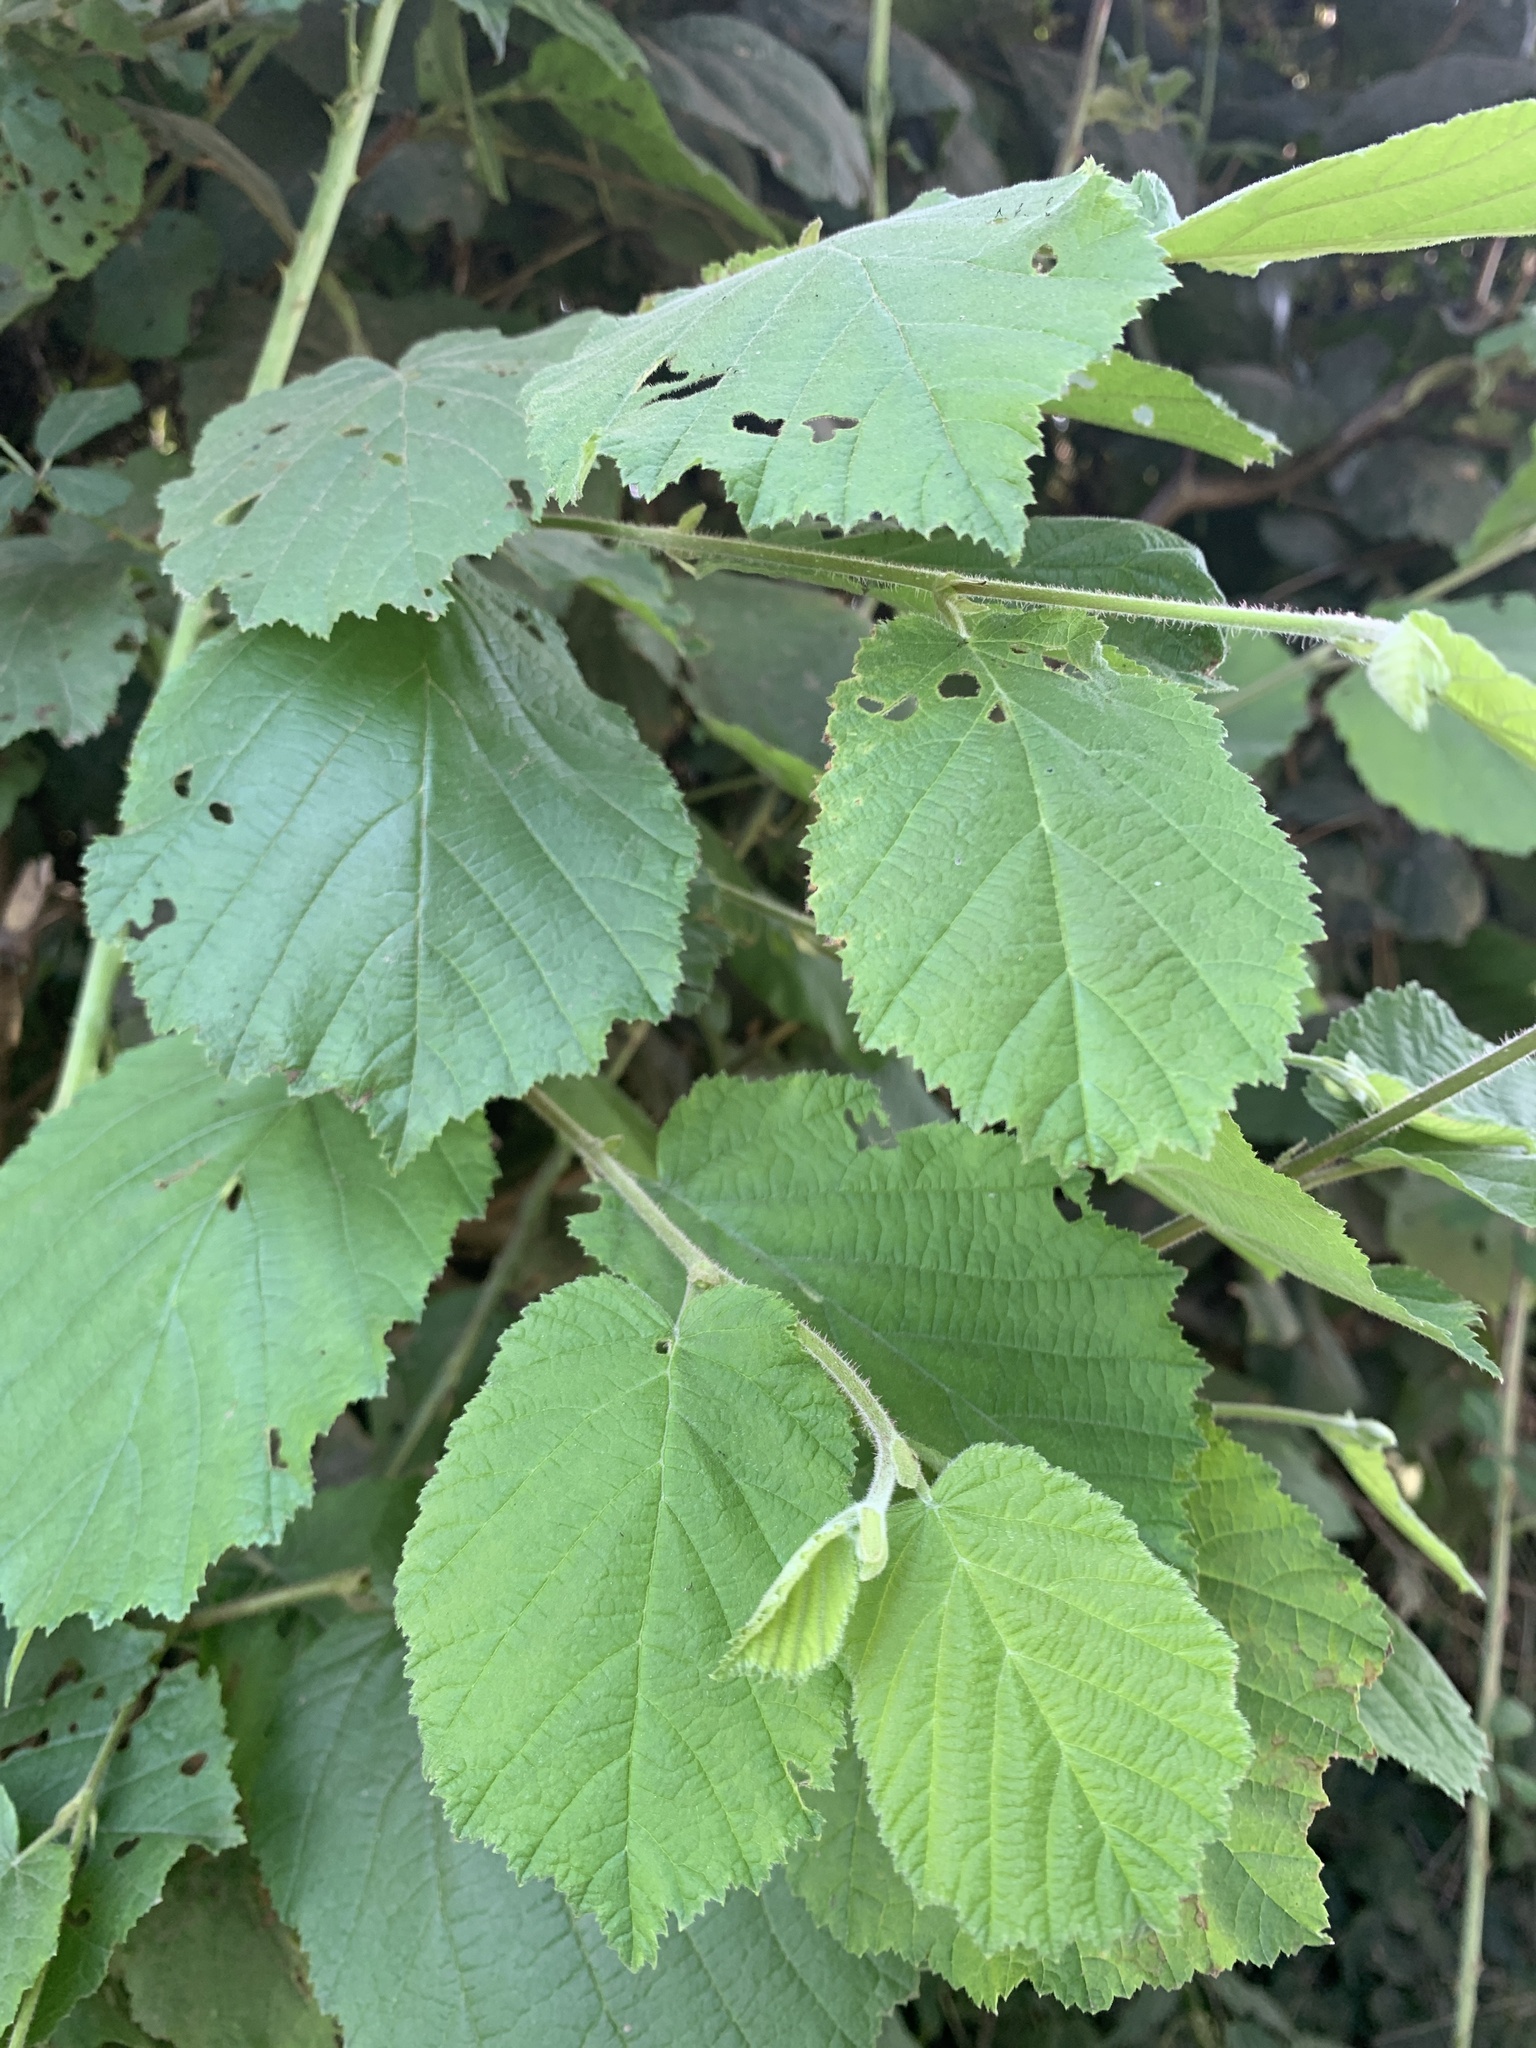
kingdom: Plantae
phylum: Tracheophyta
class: Magnoliopsida
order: Fagales
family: Betulaceae
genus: Corylus
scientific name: Corylus avellana
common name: European hazel
